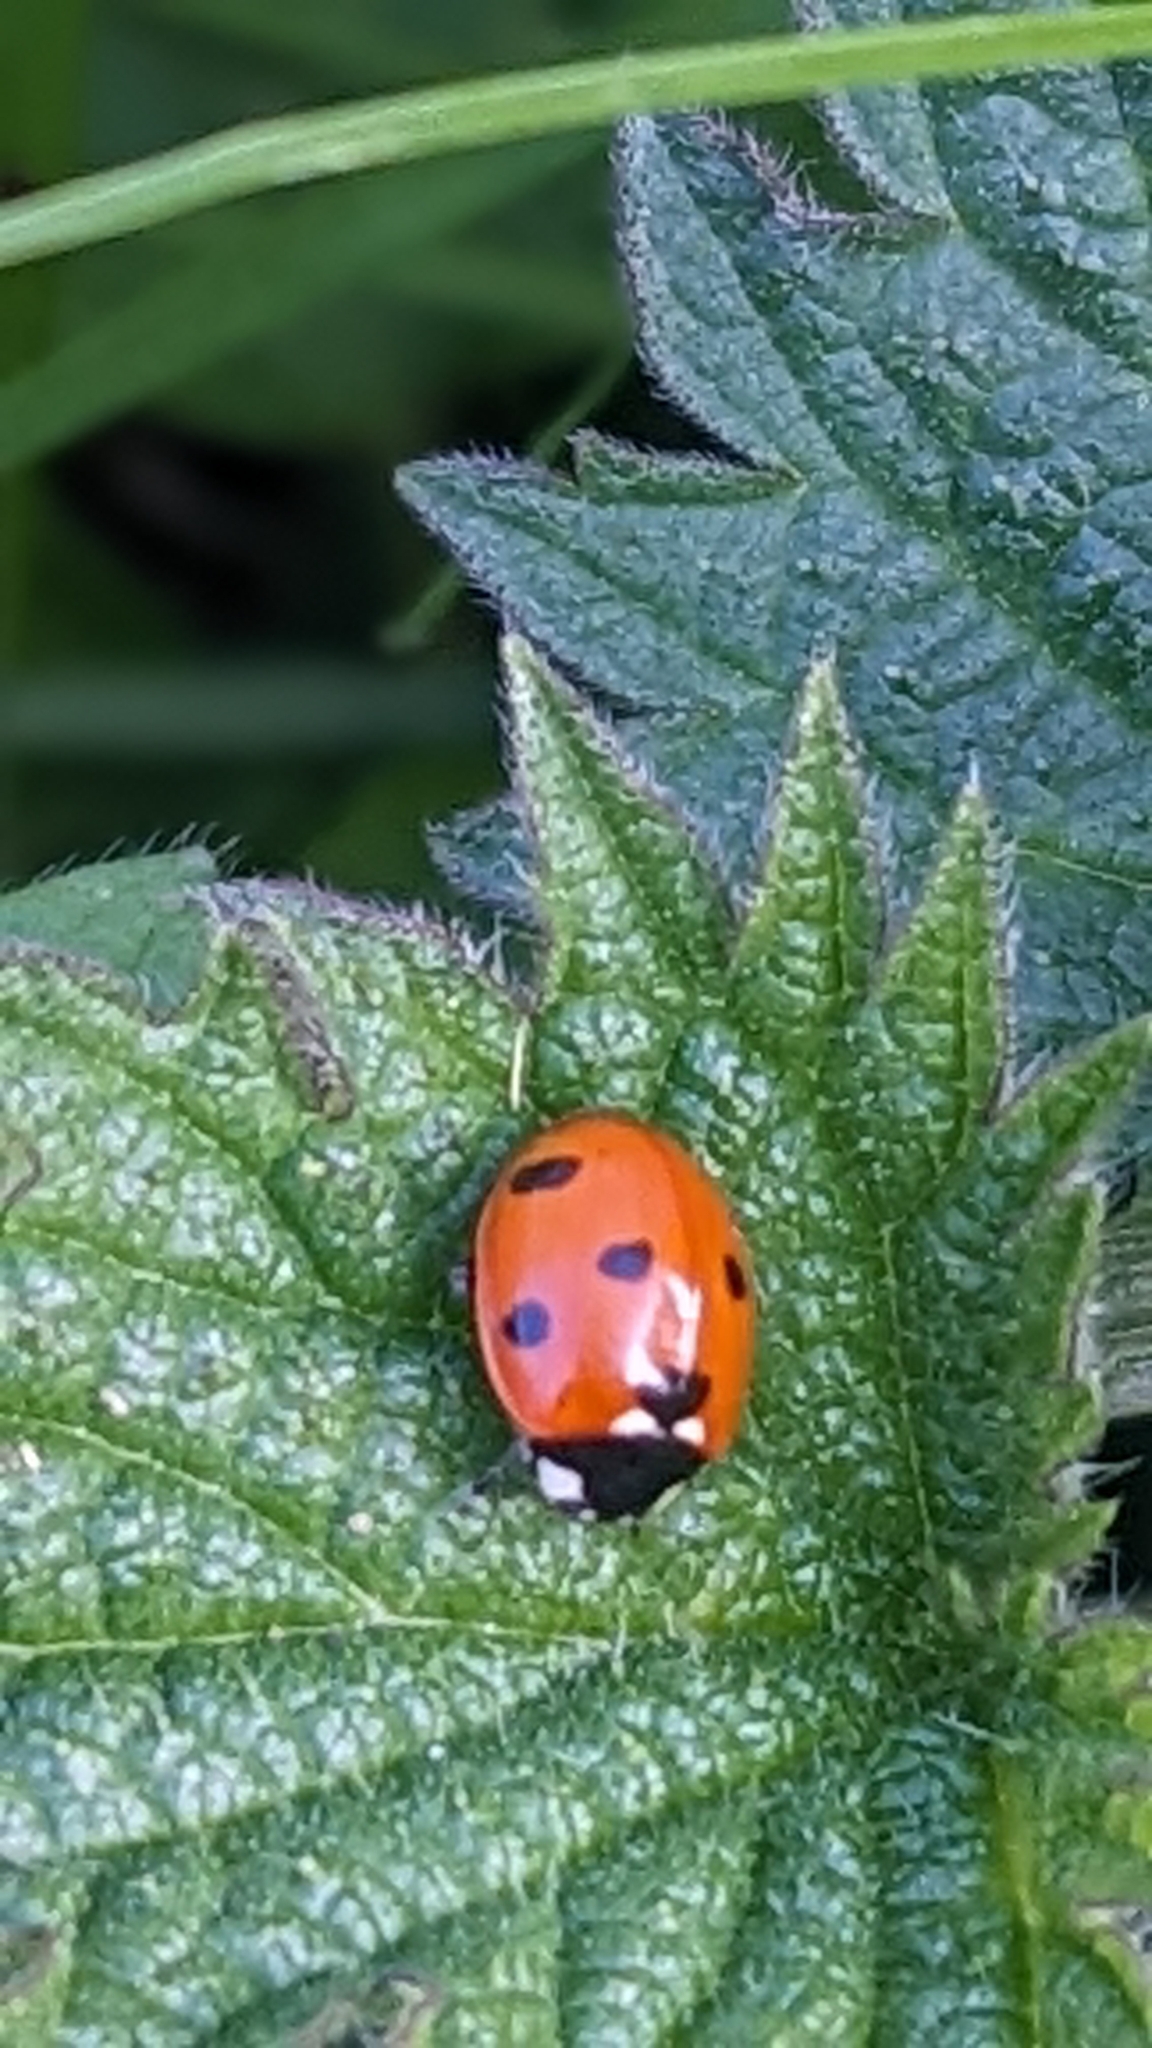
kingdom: Animalia
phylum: Arthropoda
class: Insecta
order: Coleoptera
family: Coccinellidae
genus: Coccinella
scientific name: Coccinella septempunctata
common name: Sevenspotted lady beetle
